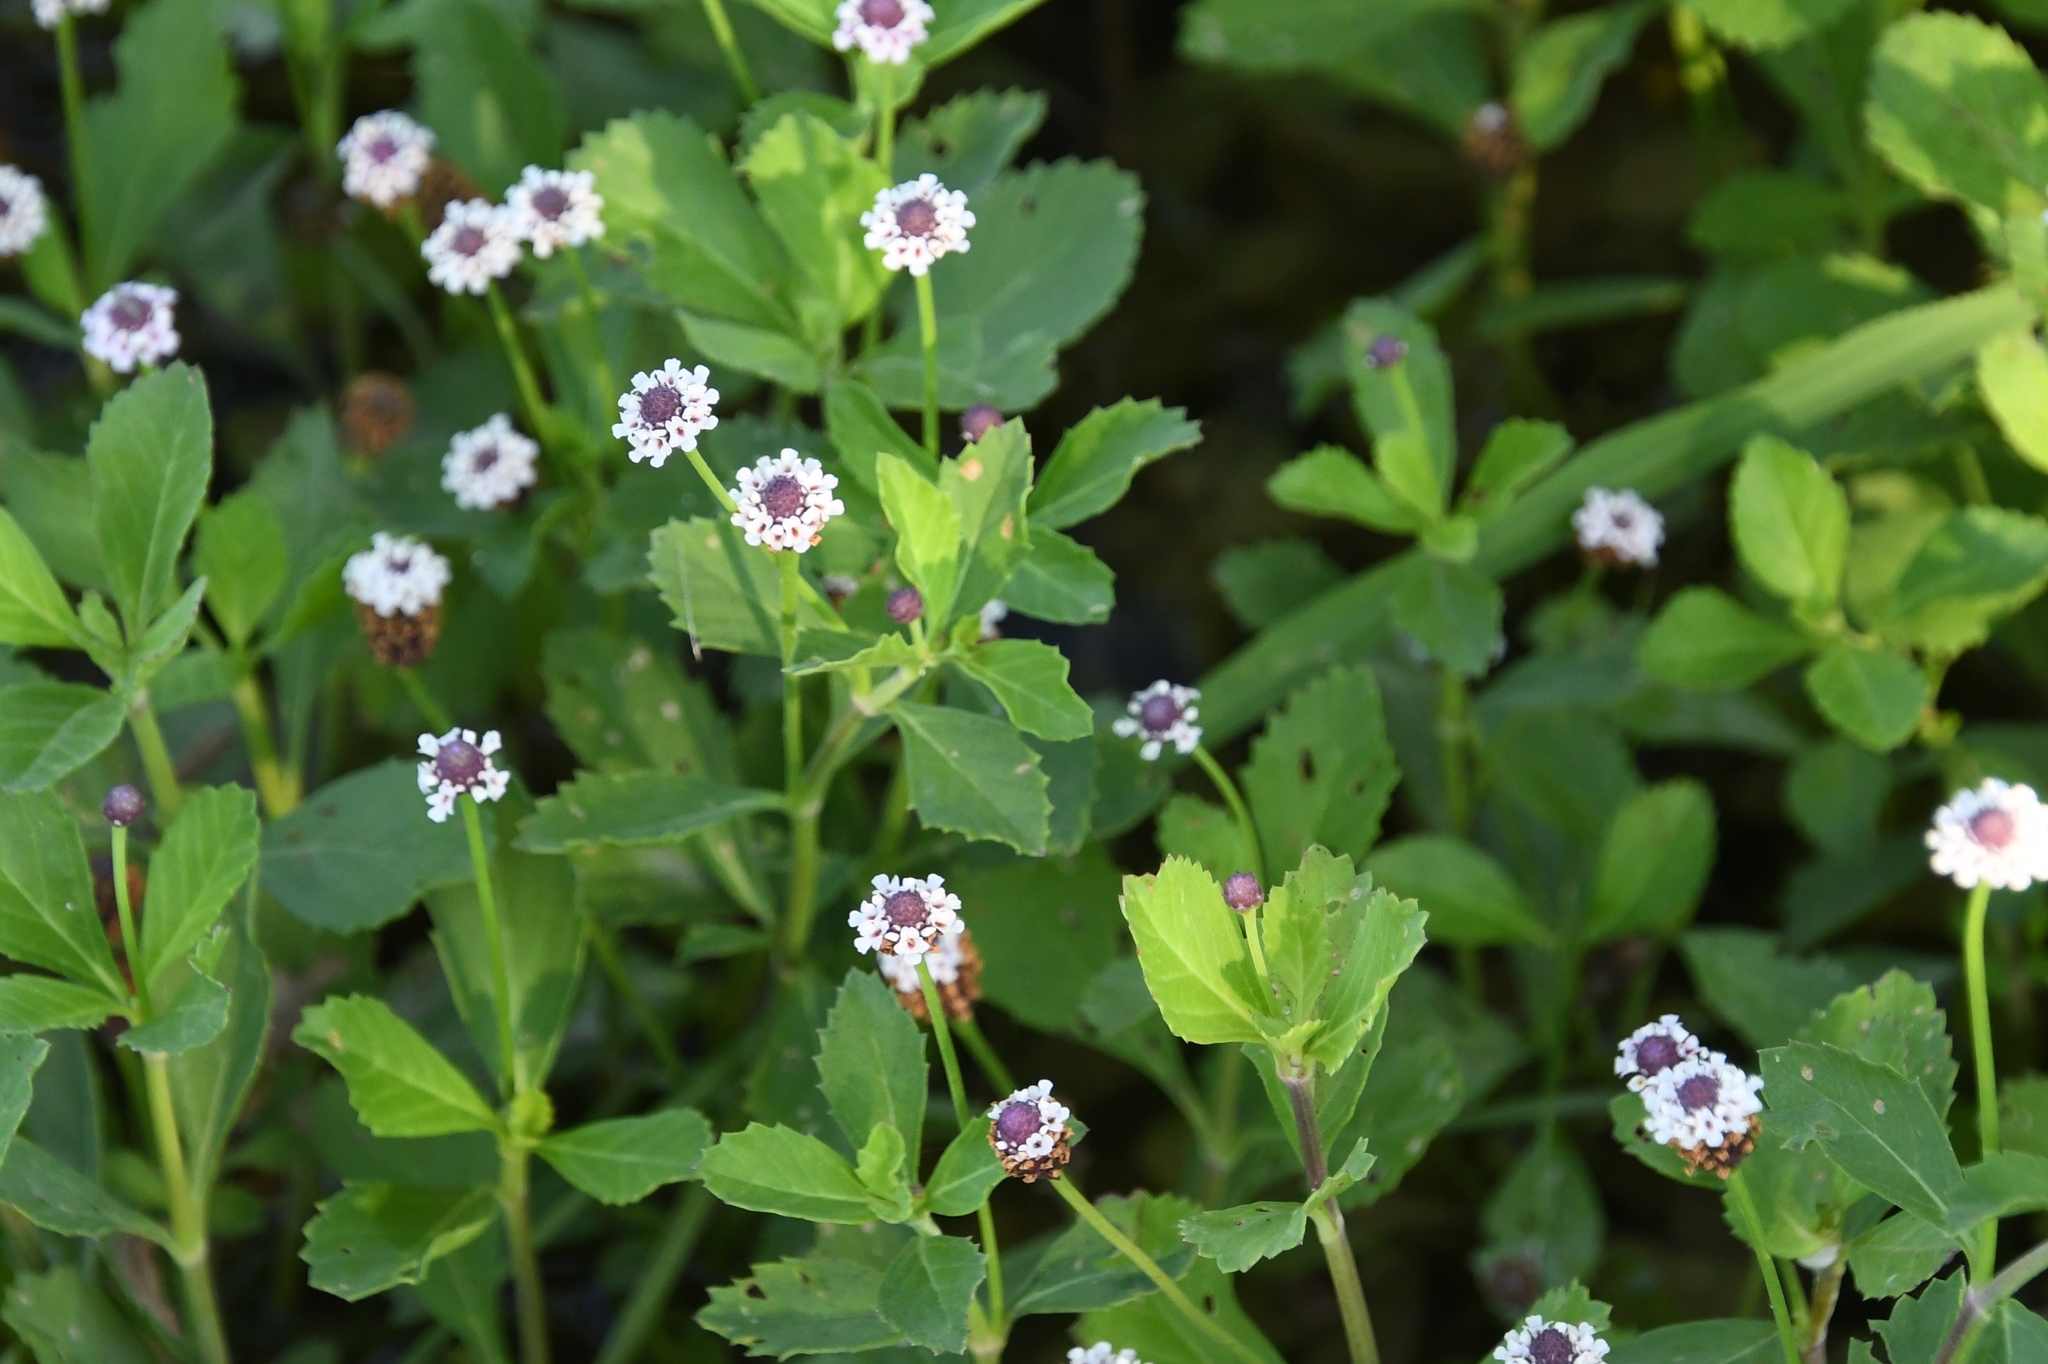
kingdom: Plantae
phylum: Tracheophyta
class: Magnoliopsida
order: Lamiales
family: Verbenaceae
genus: Phyla
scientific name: Phyla nodiflora
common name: Frogfruit
